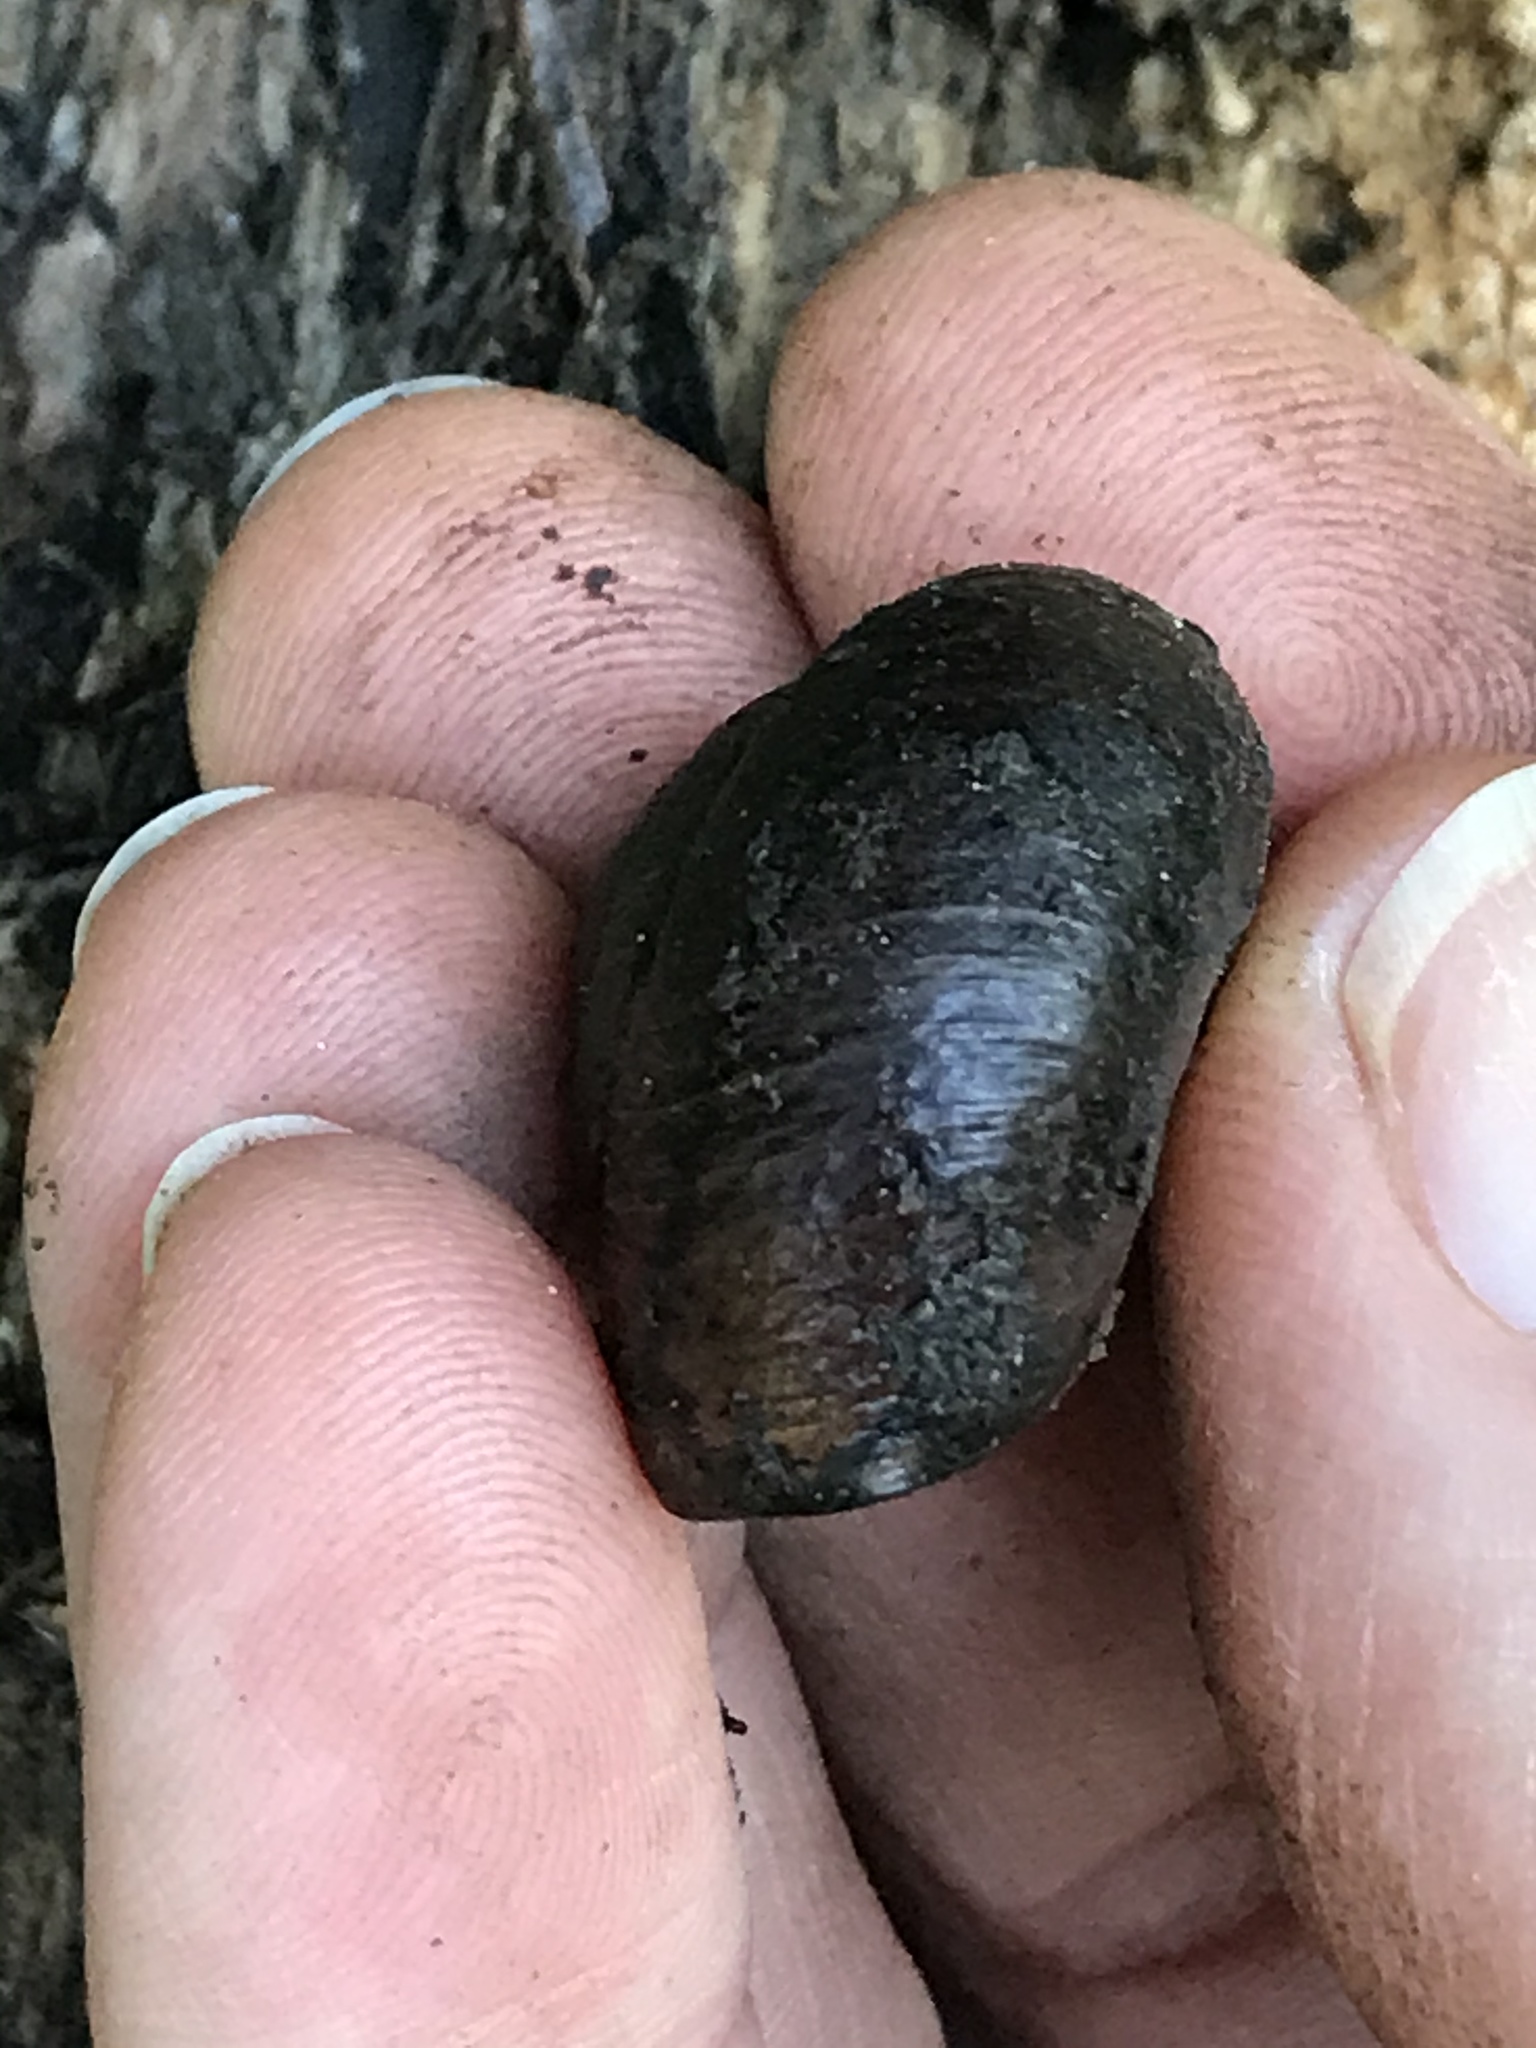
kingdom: Animalia
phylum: Mollusca
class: Gastropoda
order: Stylommatophora
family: Xanthonychidae
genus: Helminthoglypta
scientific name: Helminthoglypta arrosa
